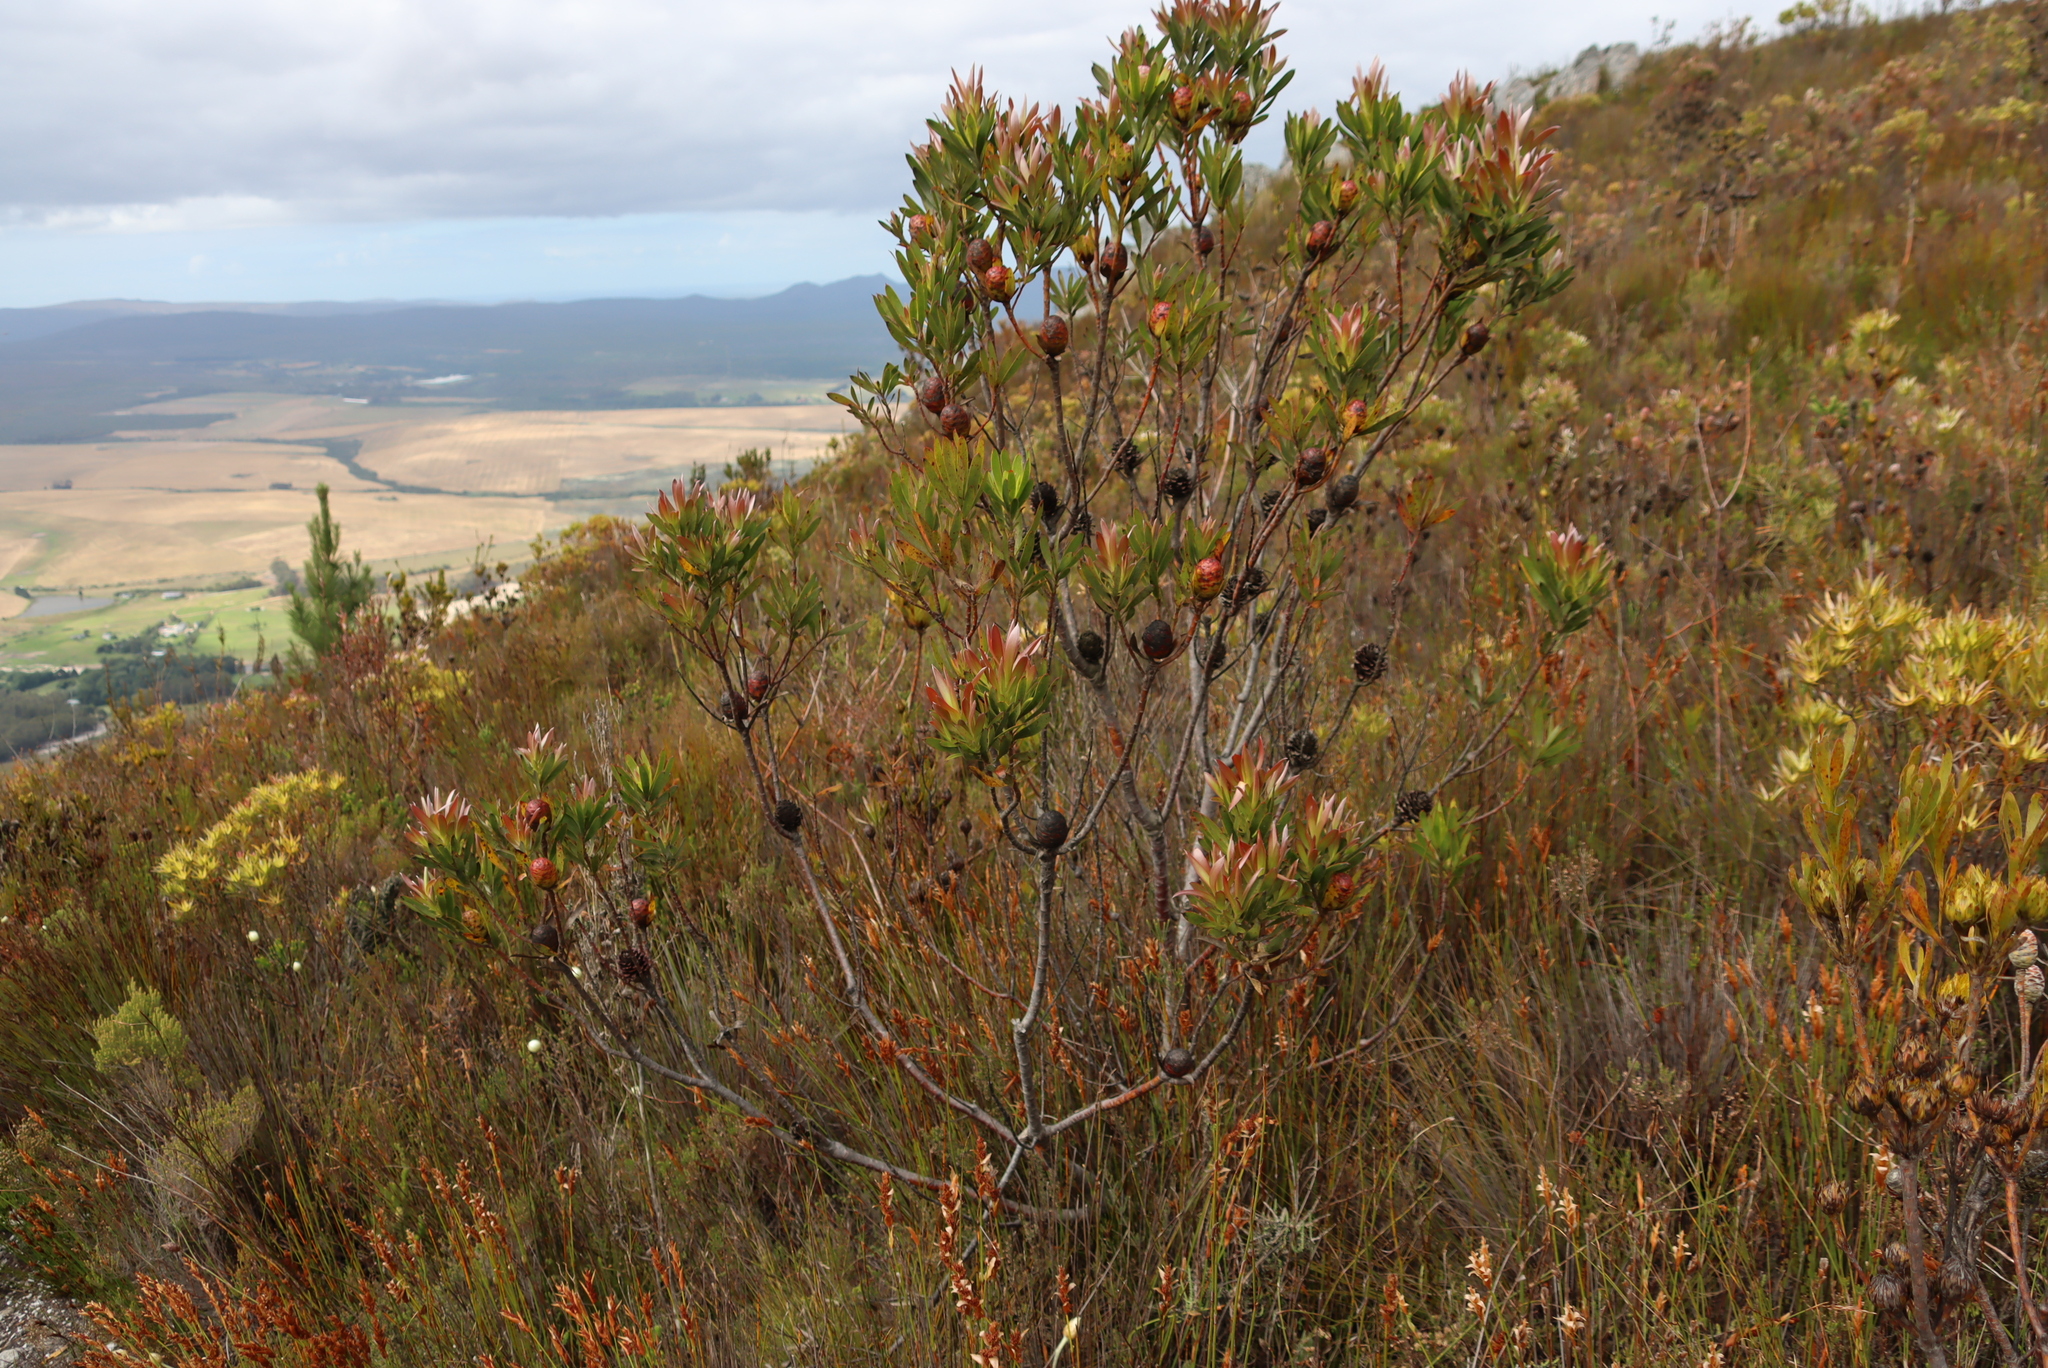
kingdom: Plantae
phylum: Tracheophyta
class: Magnoliopsida
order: Proteales
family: Proteaceae
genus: Leucadendron
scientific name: Leucadendron gandogeri
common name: Broad-leaf conebush
